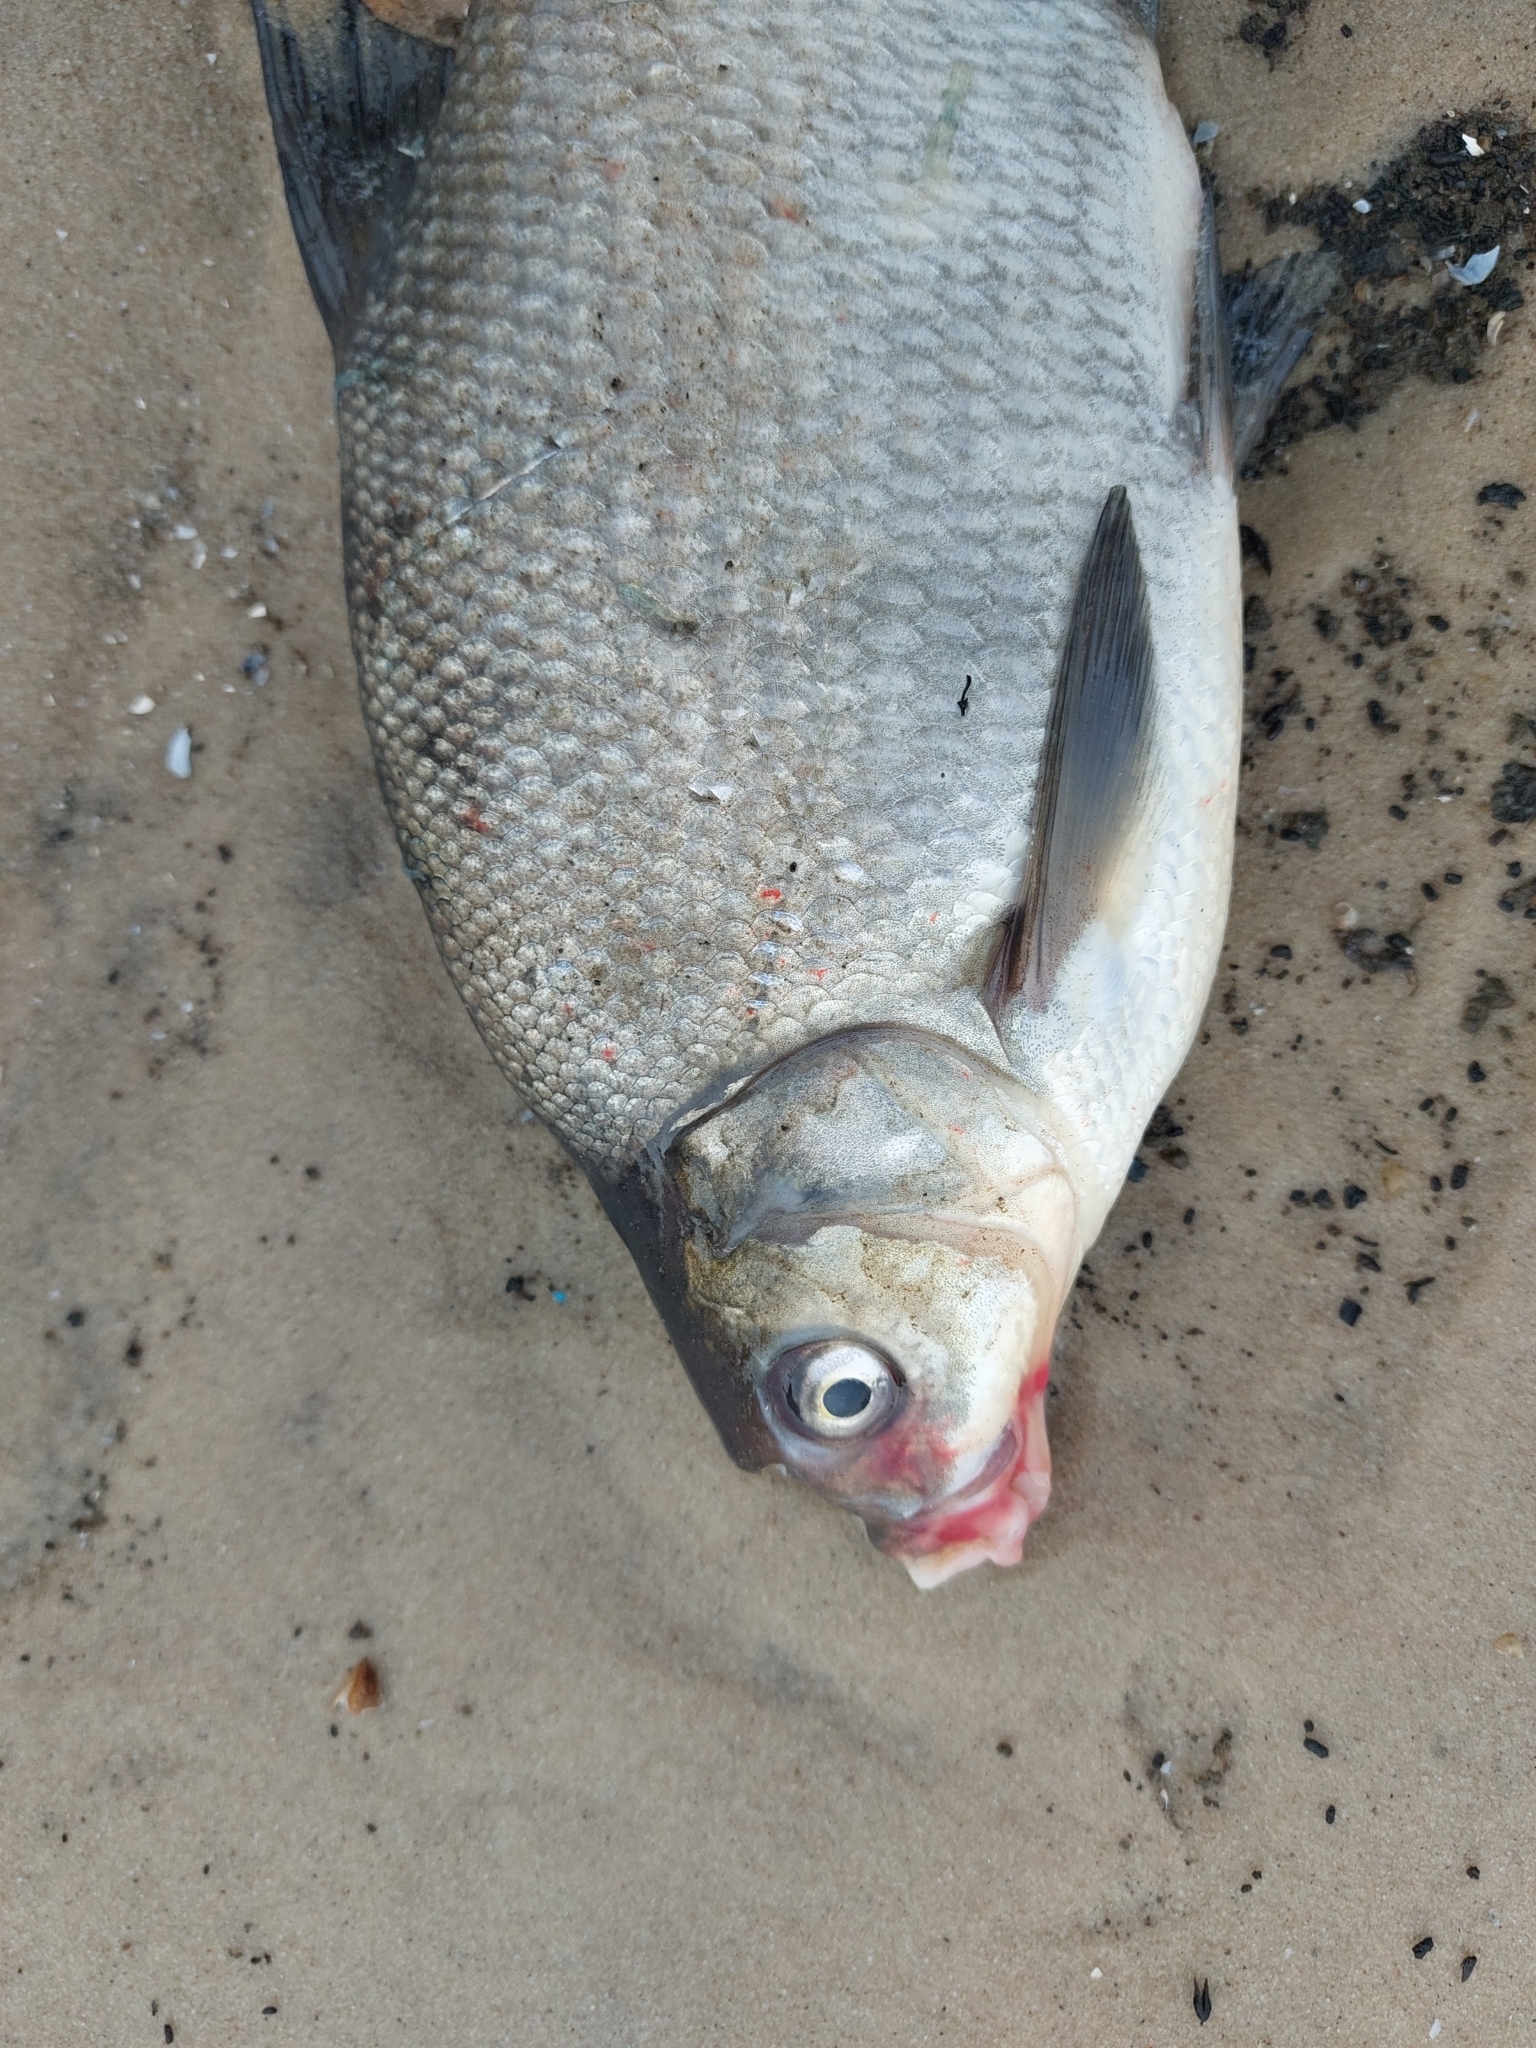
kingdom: Animalia
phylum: Chordata
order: Cypriniformes
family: Cyprinidae
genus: Abramis
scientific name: Abramis brama
